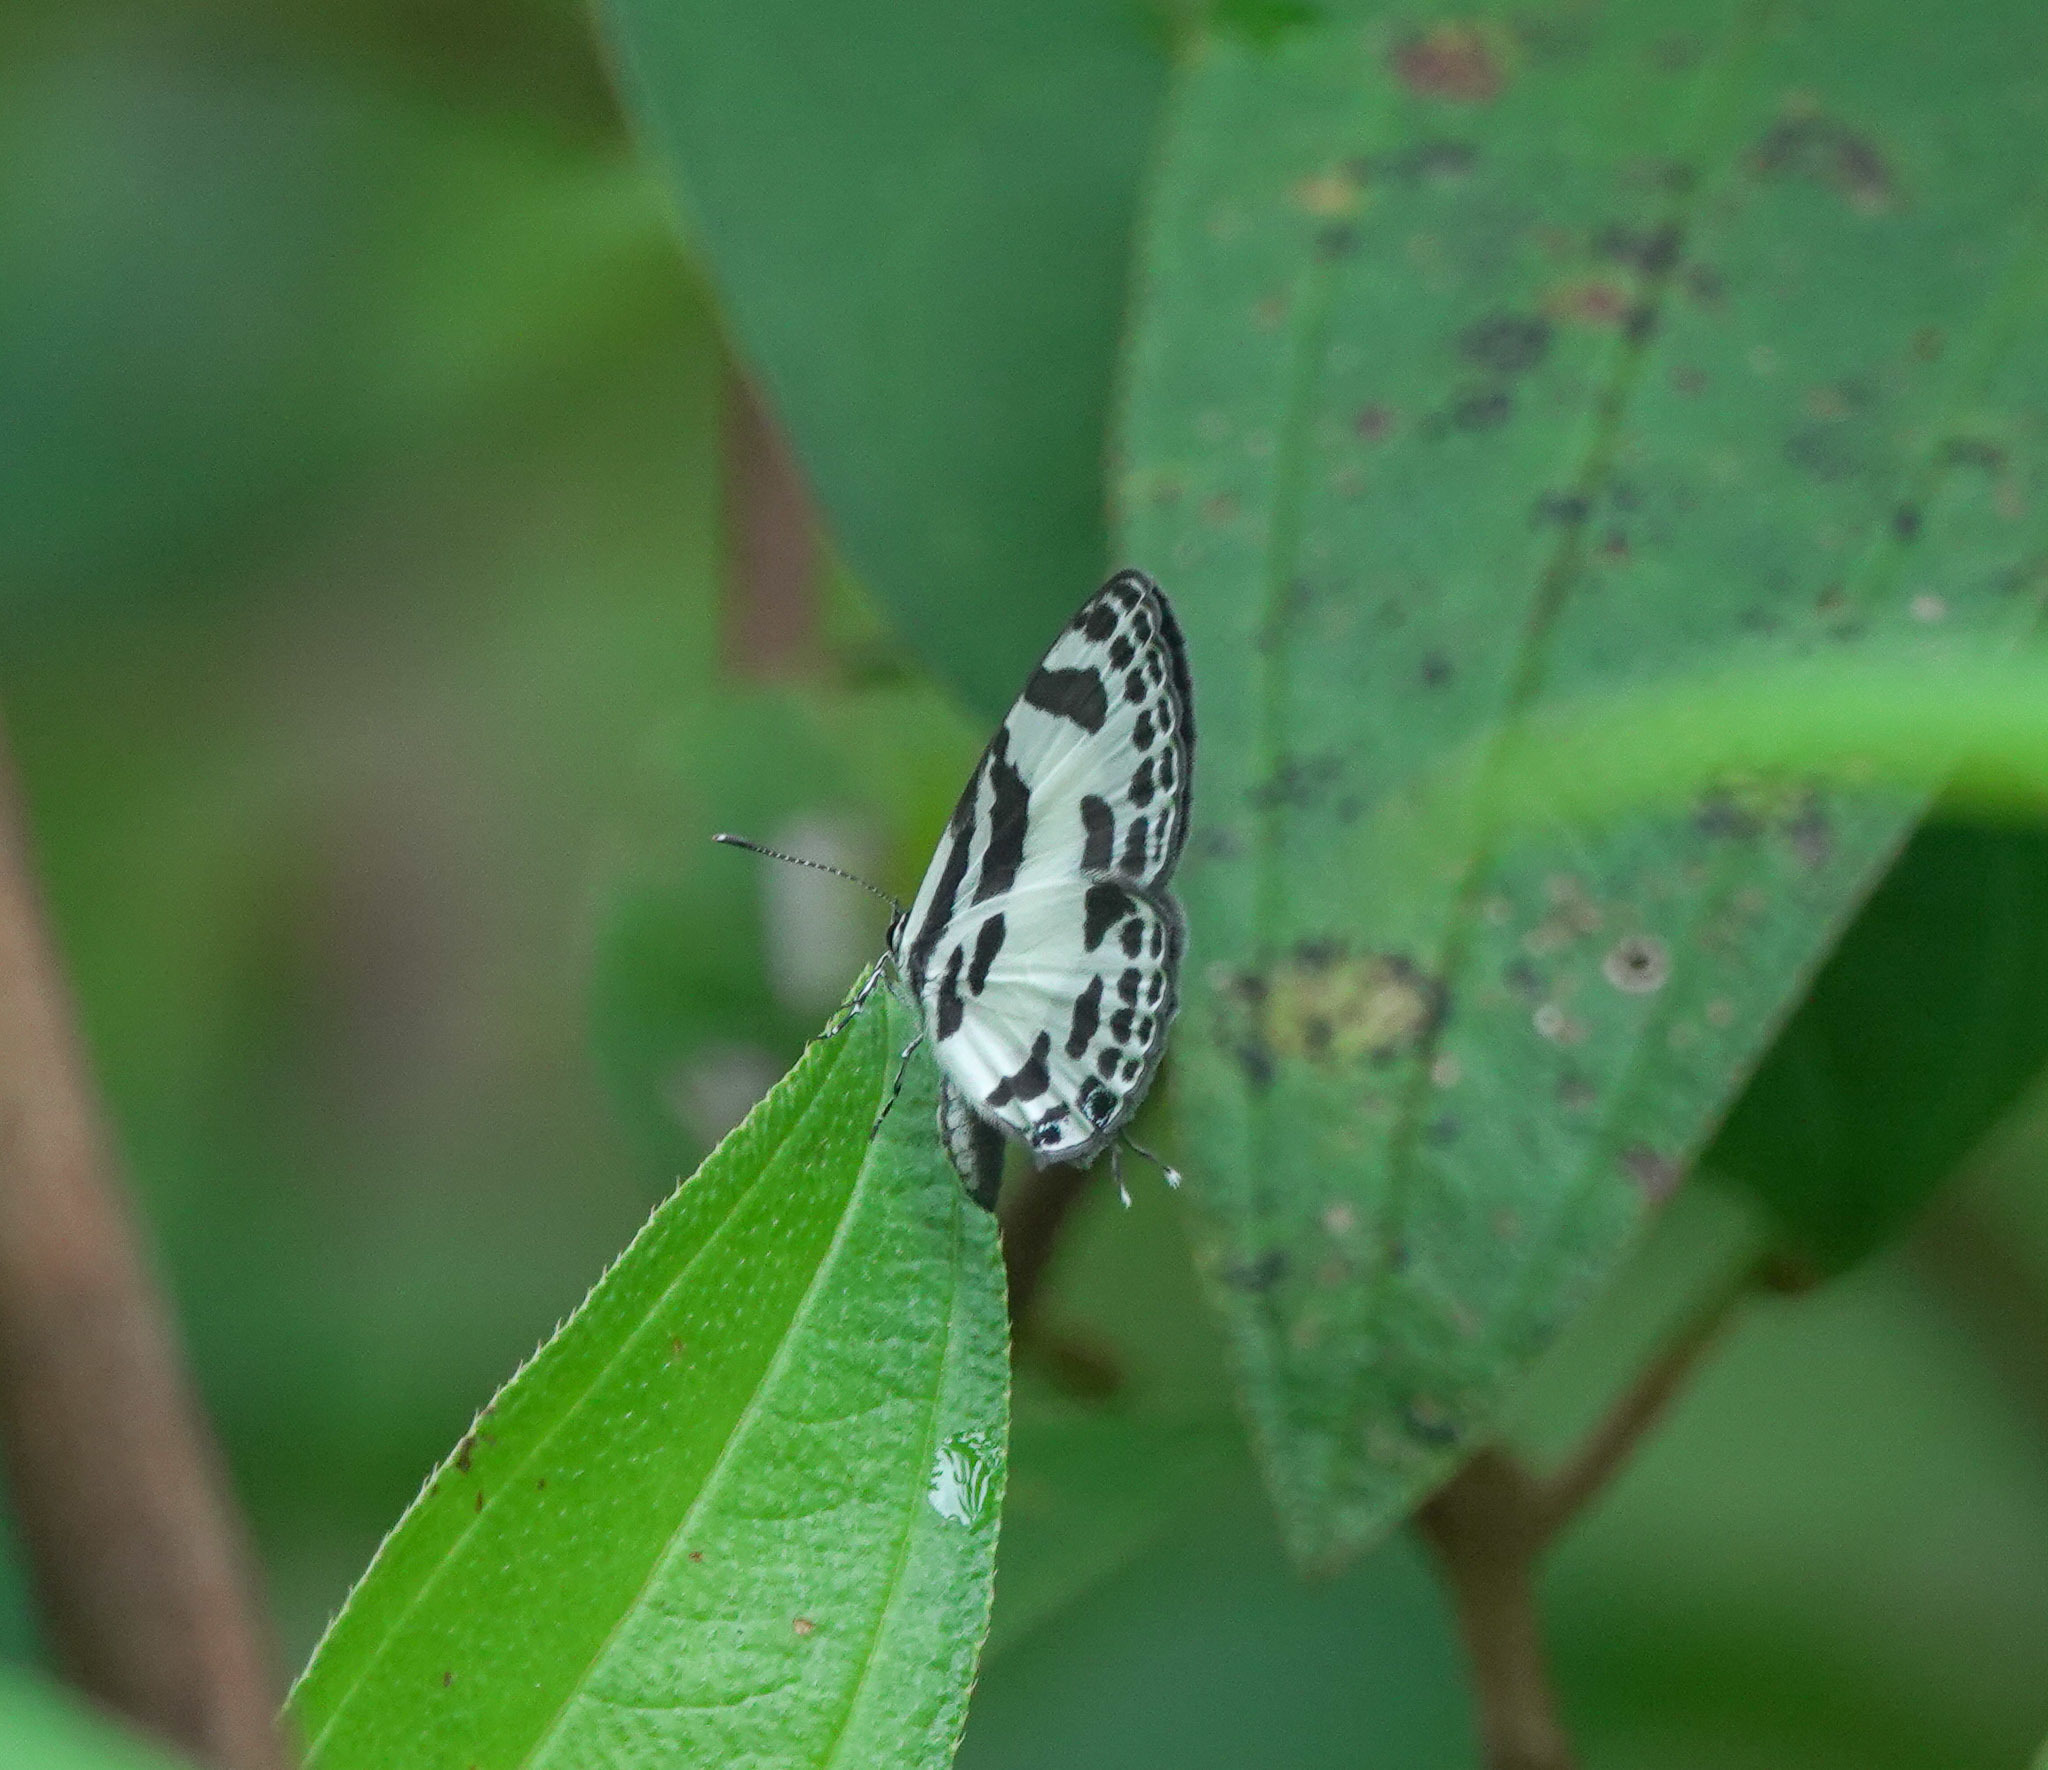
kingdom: Animalia
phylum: Arthropoda
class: Insecta
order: Lepidoptera
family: Lycaenidae
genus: Discolampa
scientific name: Discolampa ethion
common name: Banded blue pierrot
